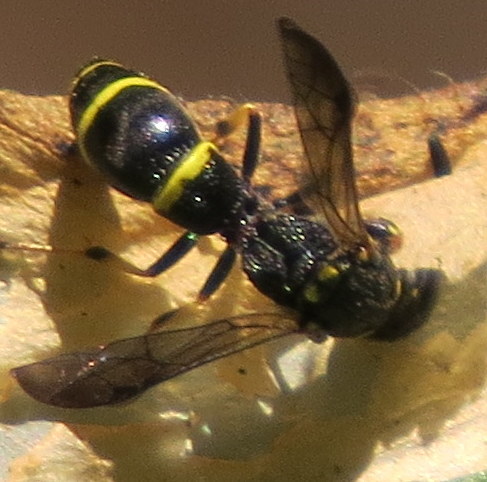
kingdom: Animalia
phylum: Arthropoda
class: Insecta
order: Hymenoptera
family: Eumenidae
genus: Symmorphus
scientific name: Symmorphus
